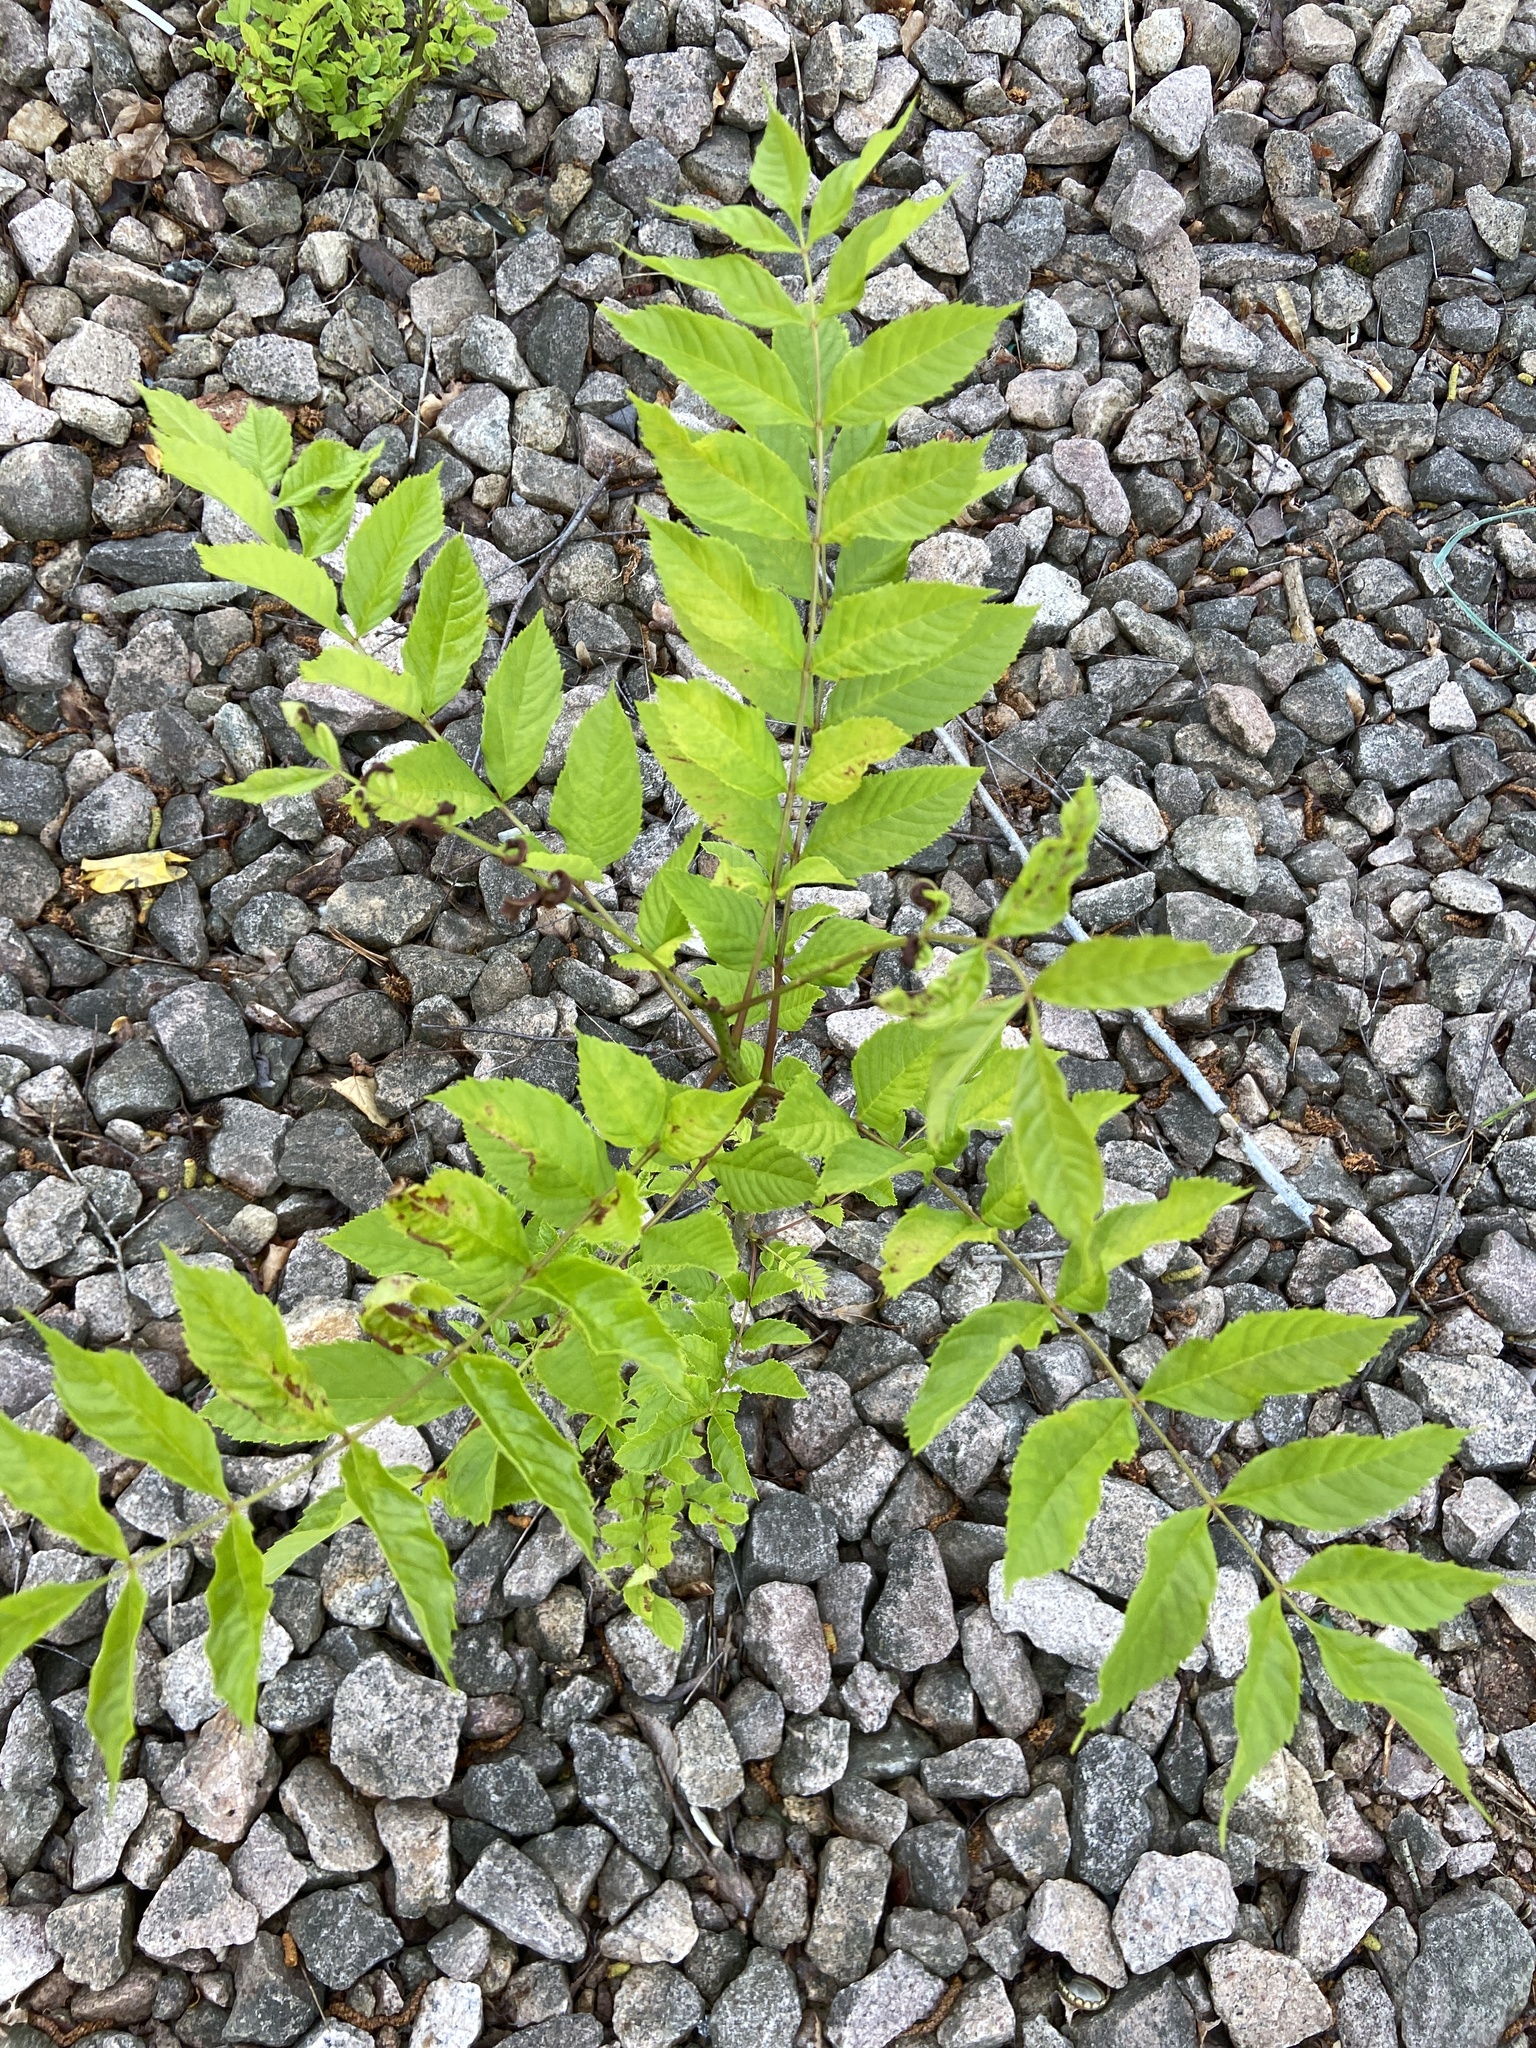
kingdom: Plantae
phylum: Tracheophyta
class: Magnoliopsida
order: Lamiales
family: Oleaceae
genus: Fraxinus
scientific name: Fraxinus excelsior
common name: European ash
